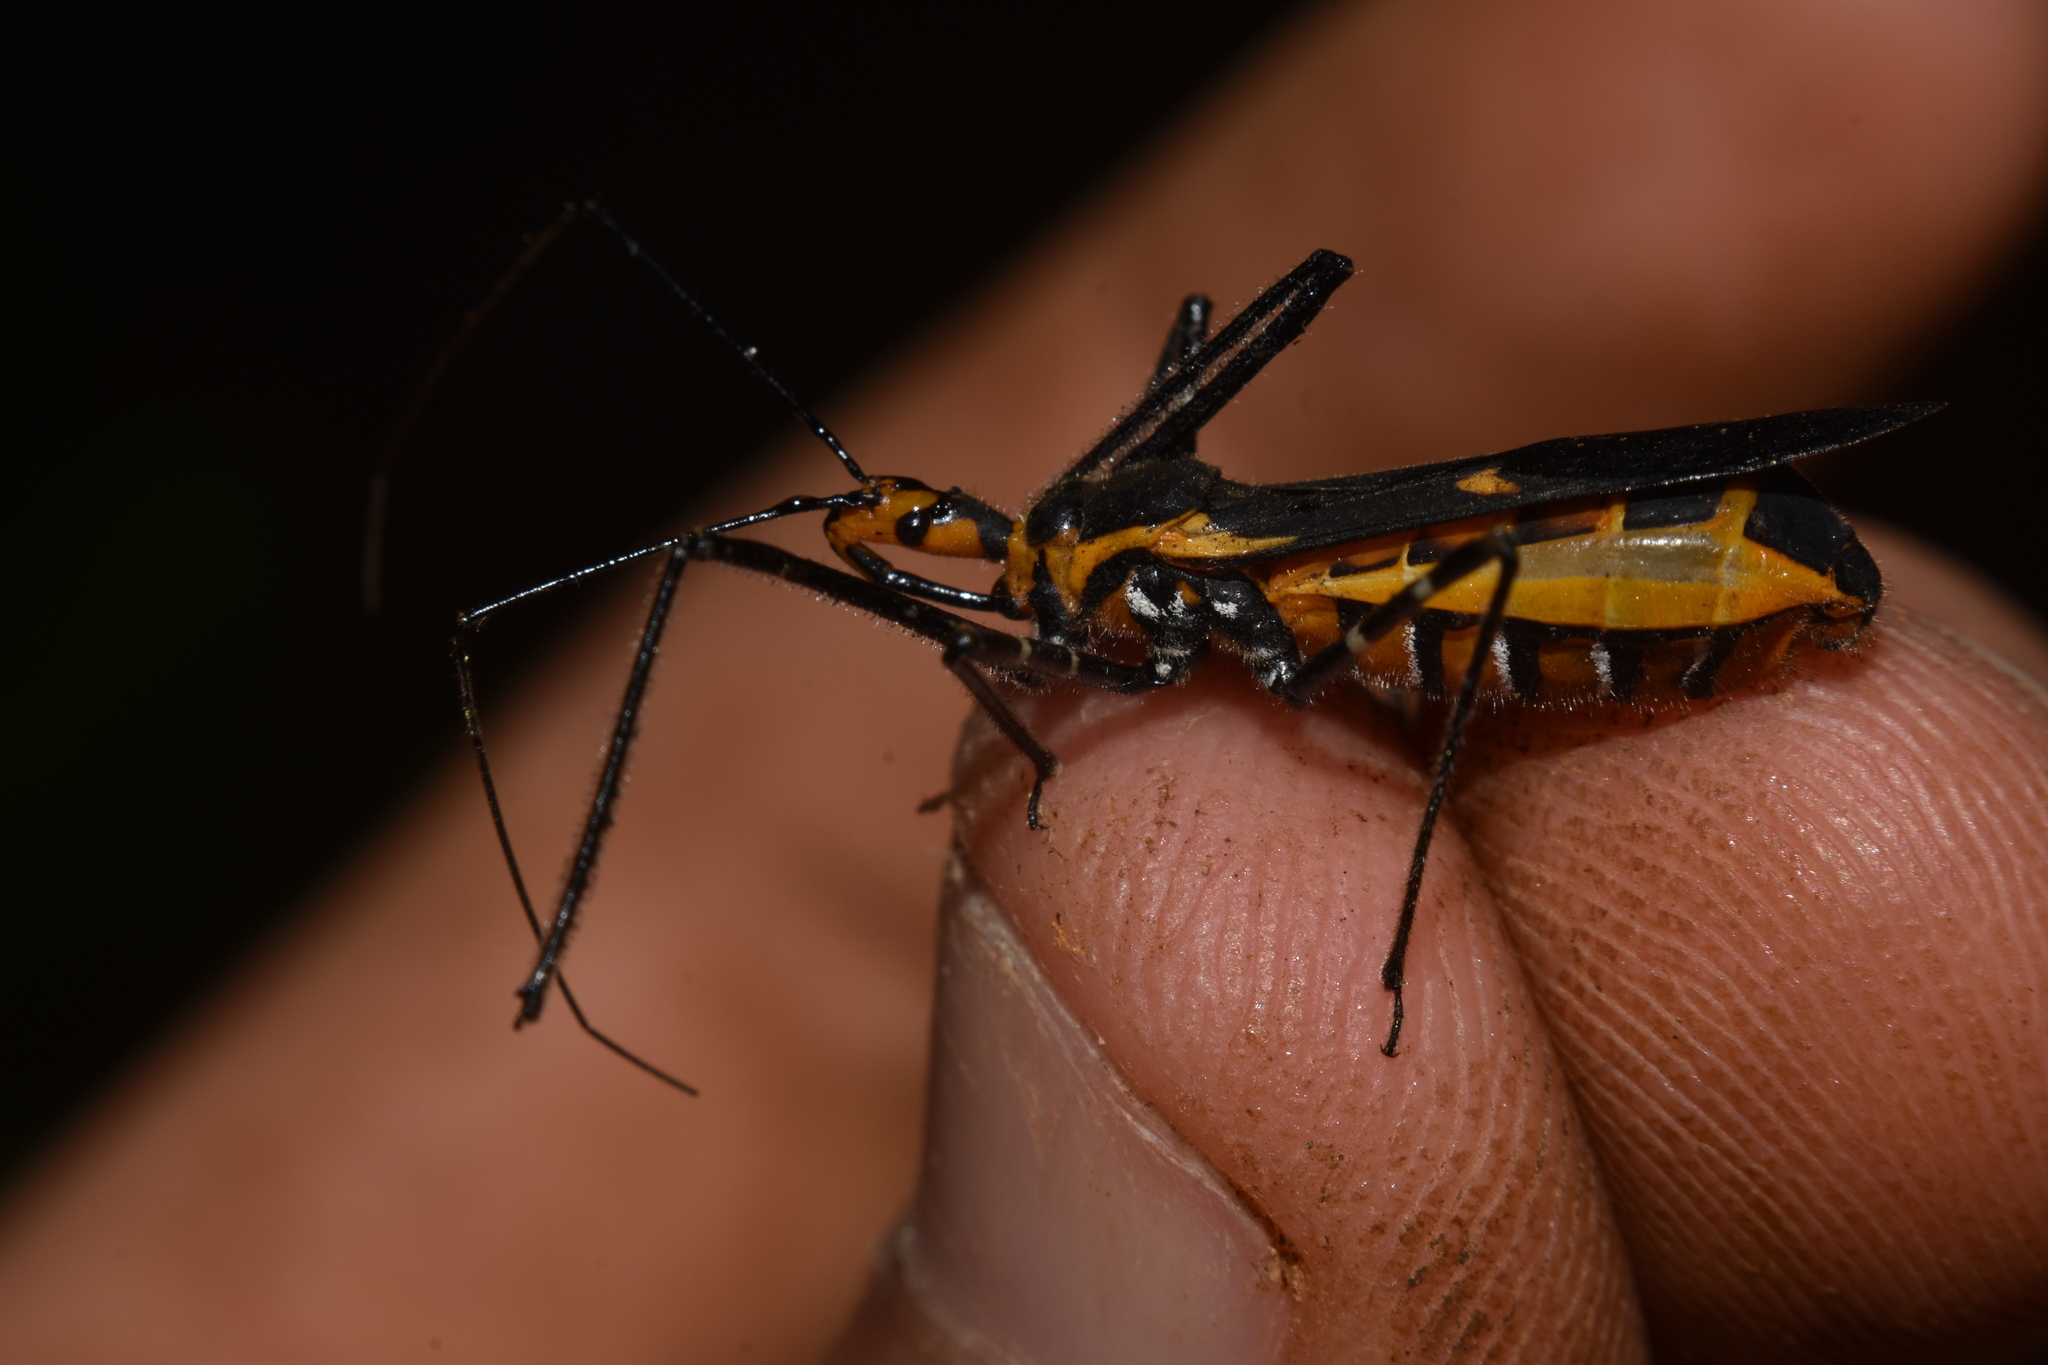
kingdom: Animalia
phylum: Arthropoda
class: Insecta
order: Hemiptera
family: Reduviidae
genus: Zelus
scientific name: Zelus longipes
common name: Milkweed assassin bug
